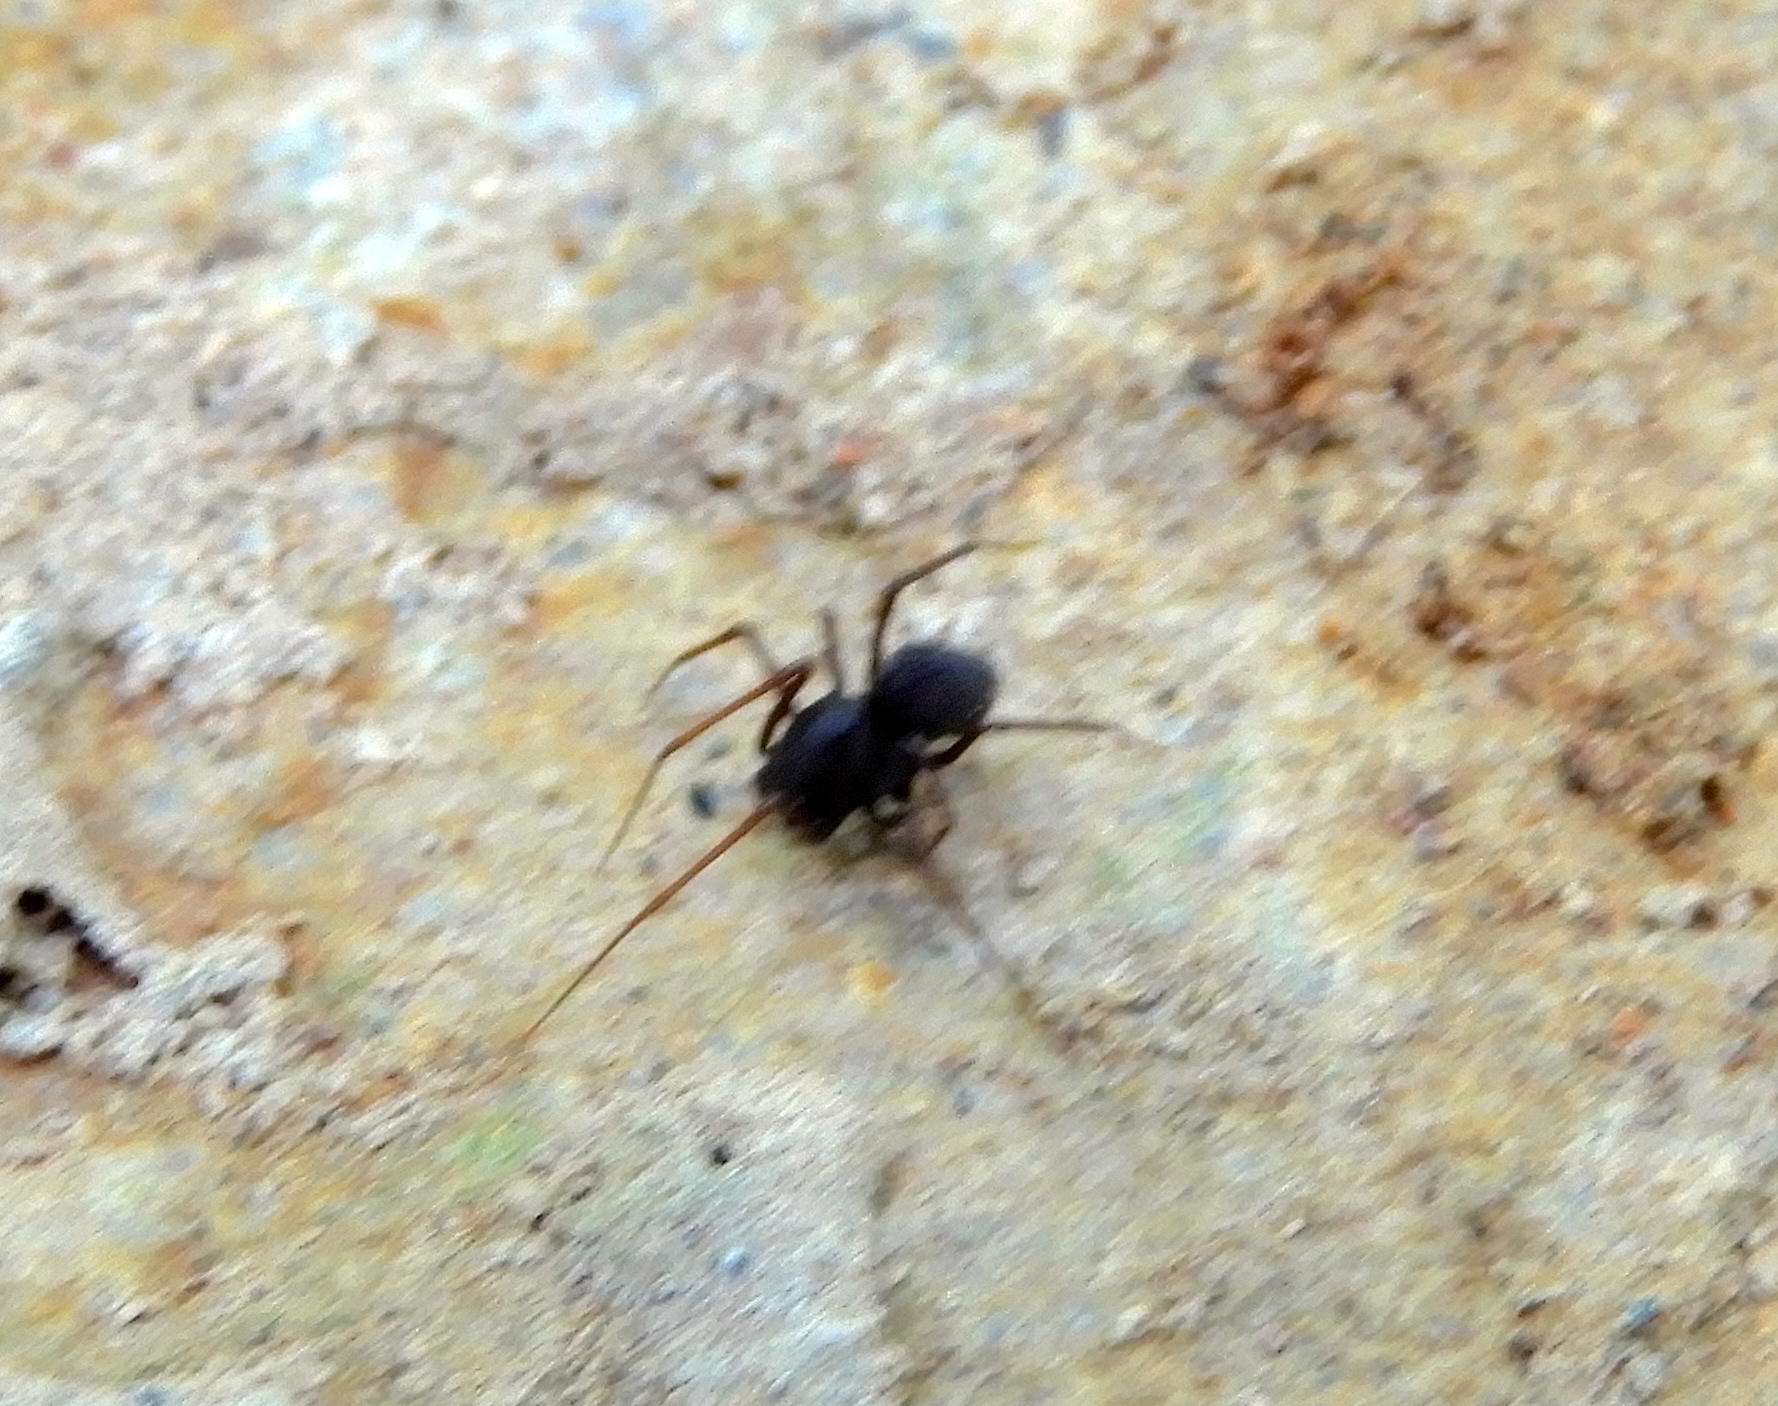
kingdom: Animalia
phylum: Arthropoda
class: Arachnida
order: Araneae
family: Scytodidae
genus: Scytodes
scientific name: Scytodes
